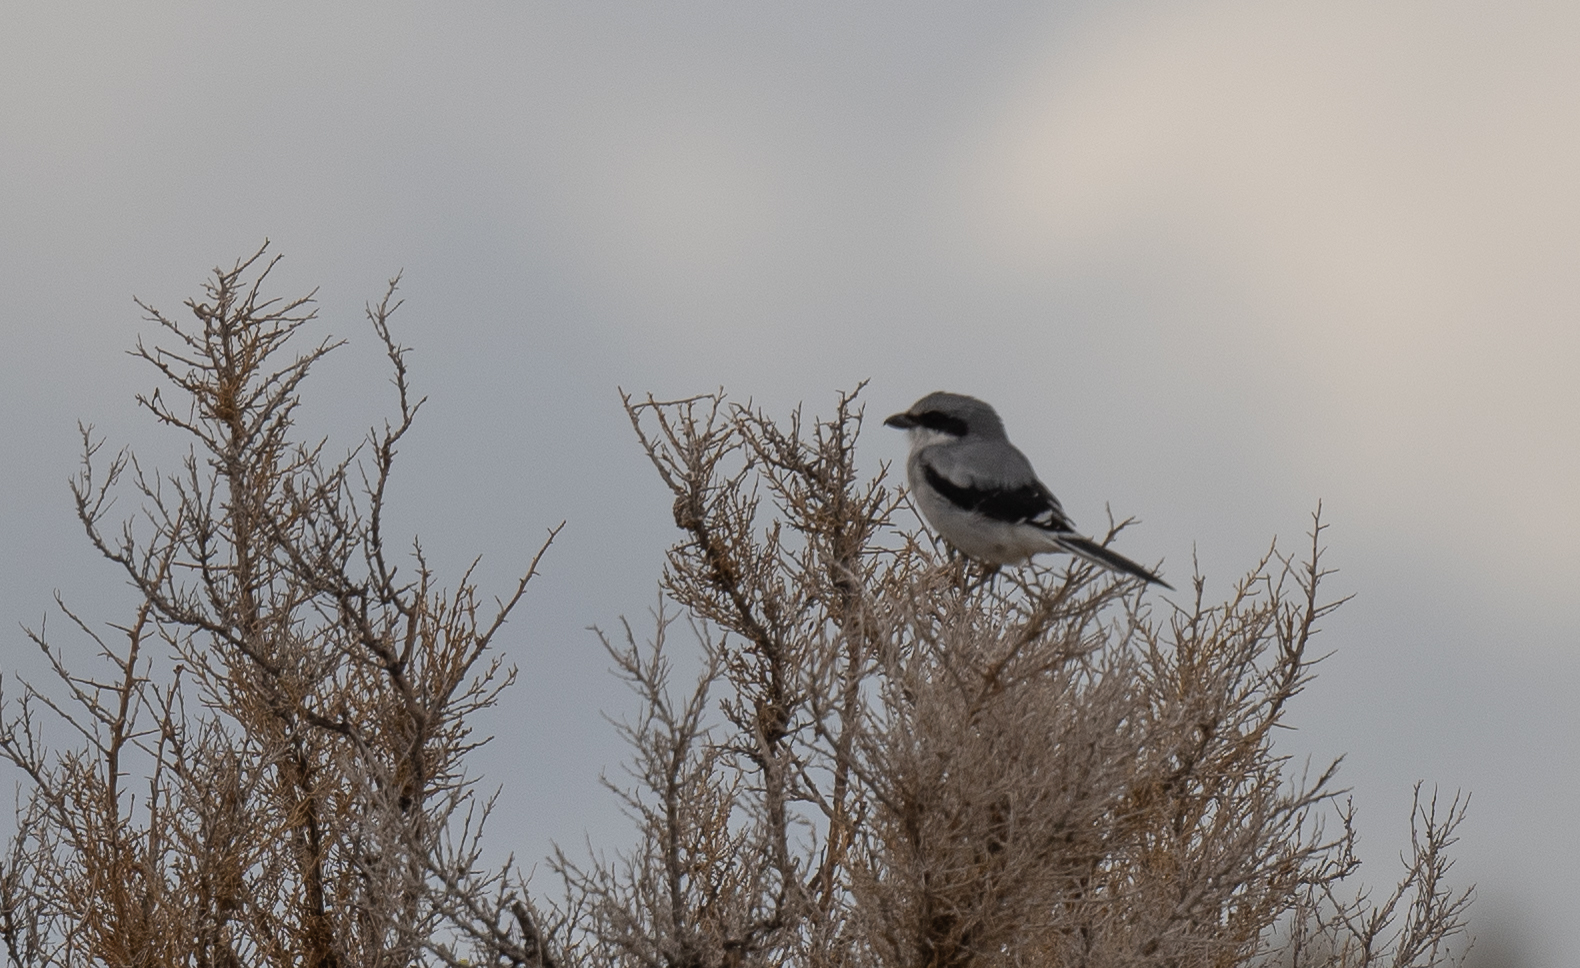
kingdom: Animalia
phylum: Chordata
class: Aves
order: Passeriformes
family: Laniidae
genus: Lanius
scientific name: Lanius ludovicianus
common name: Loggerhead shrike
